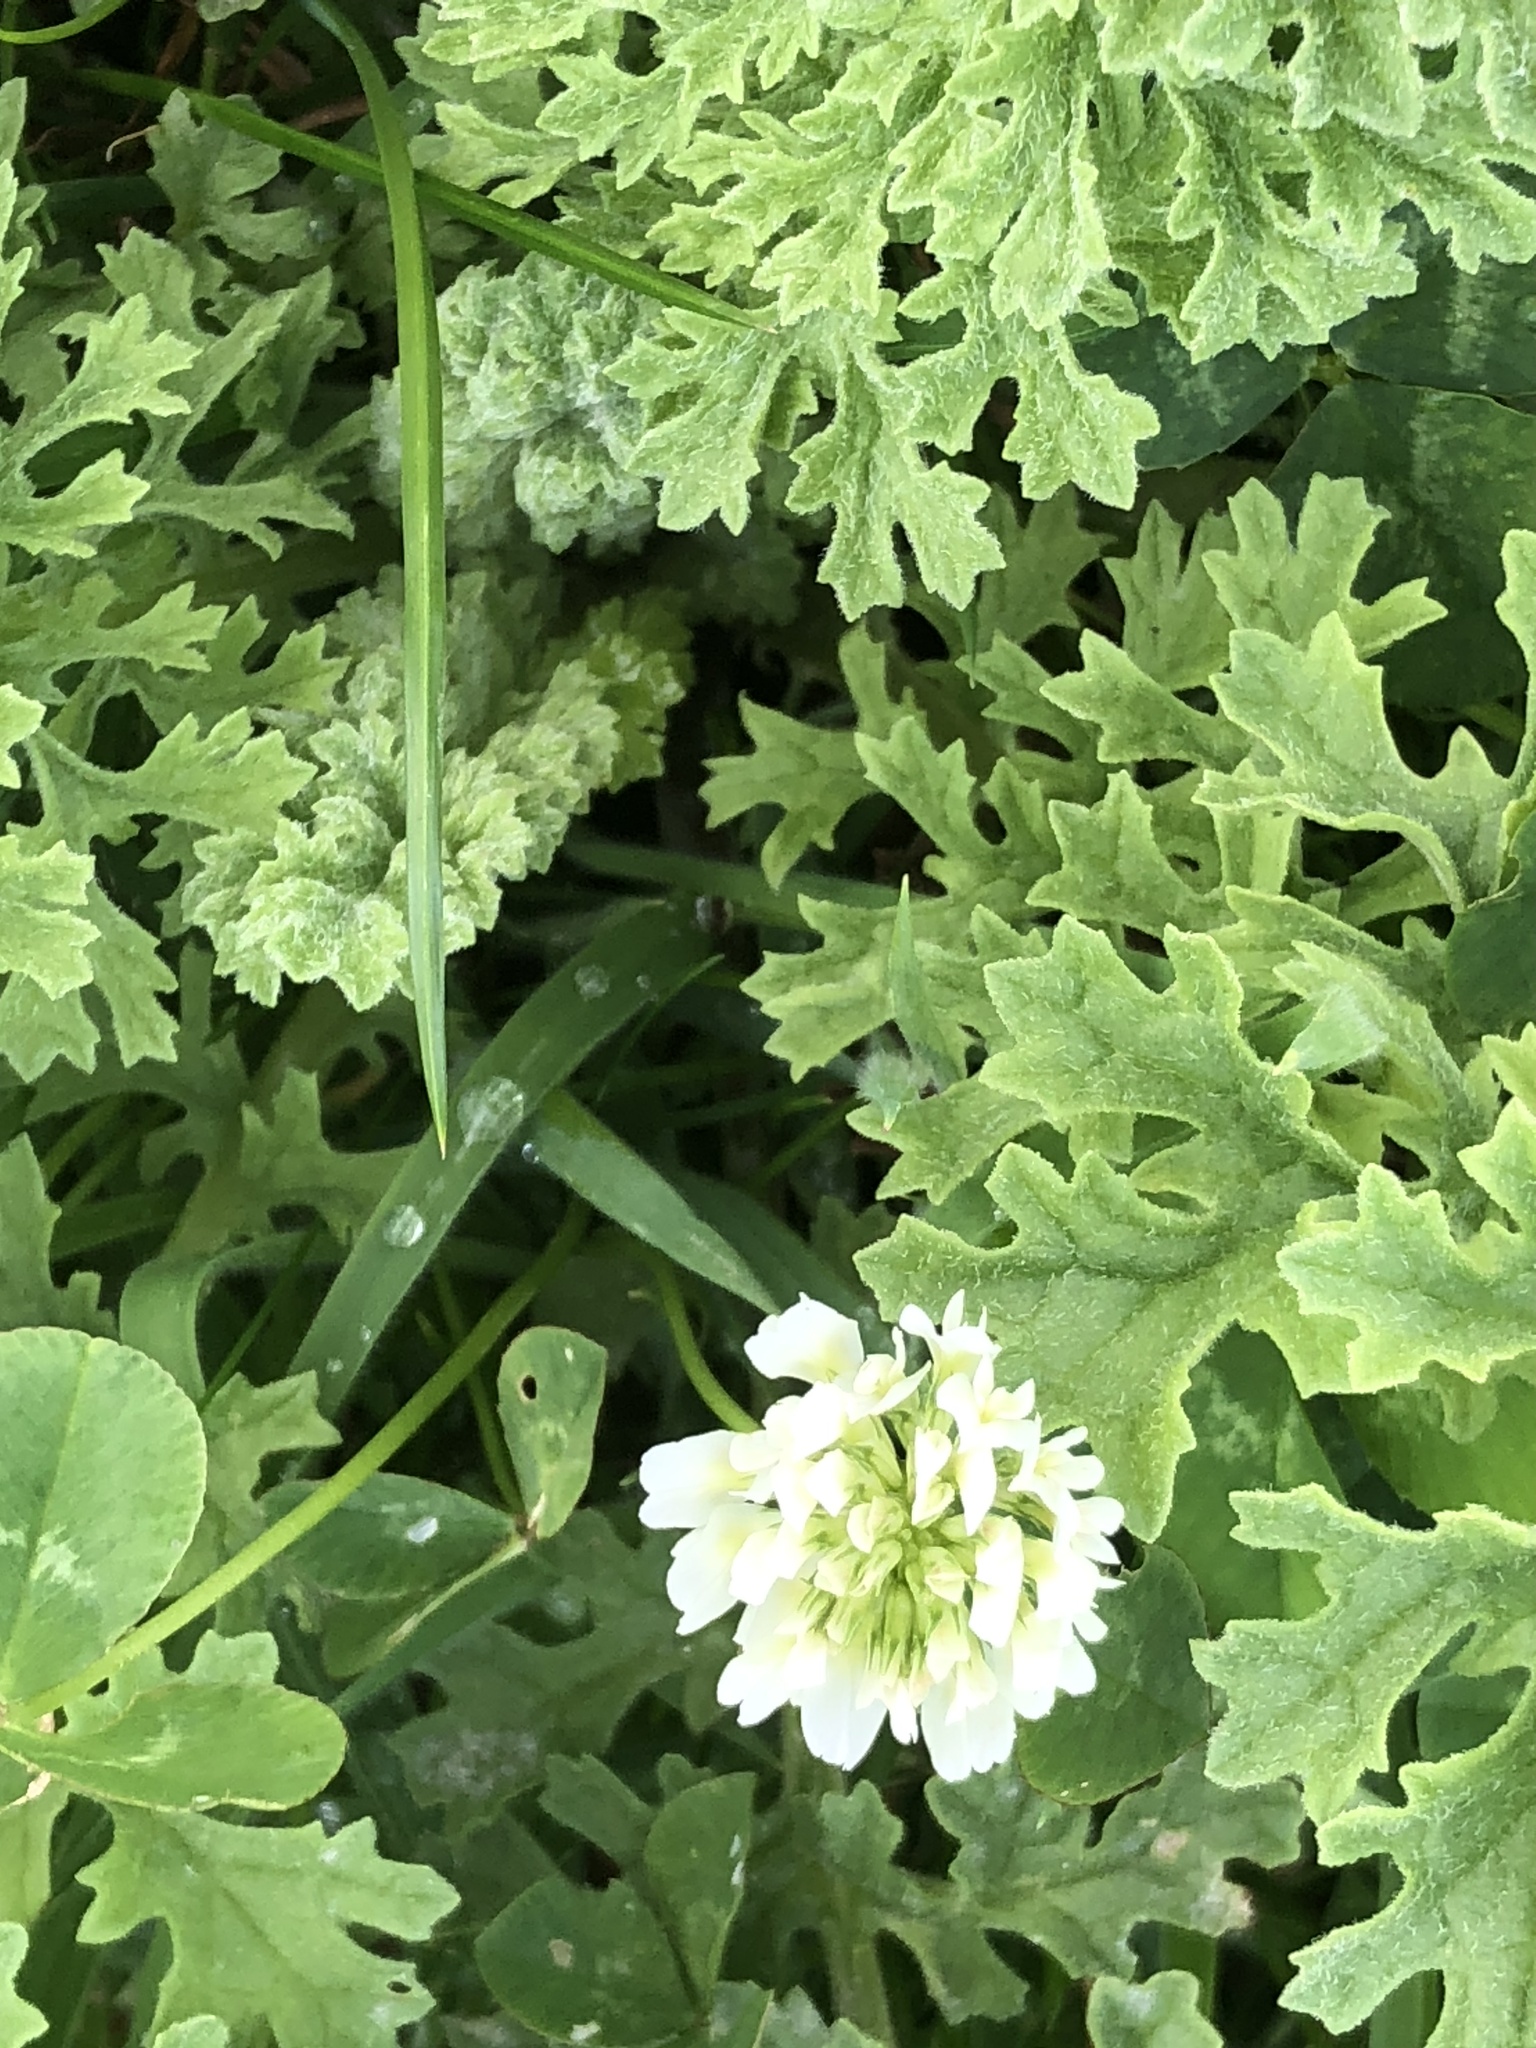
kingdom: Plantae
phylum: Tracheophyta
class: Magnoliopsida
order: Fabales
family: Fabaceae
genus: Trifolium
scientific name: Trifolium repens
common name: White clover
